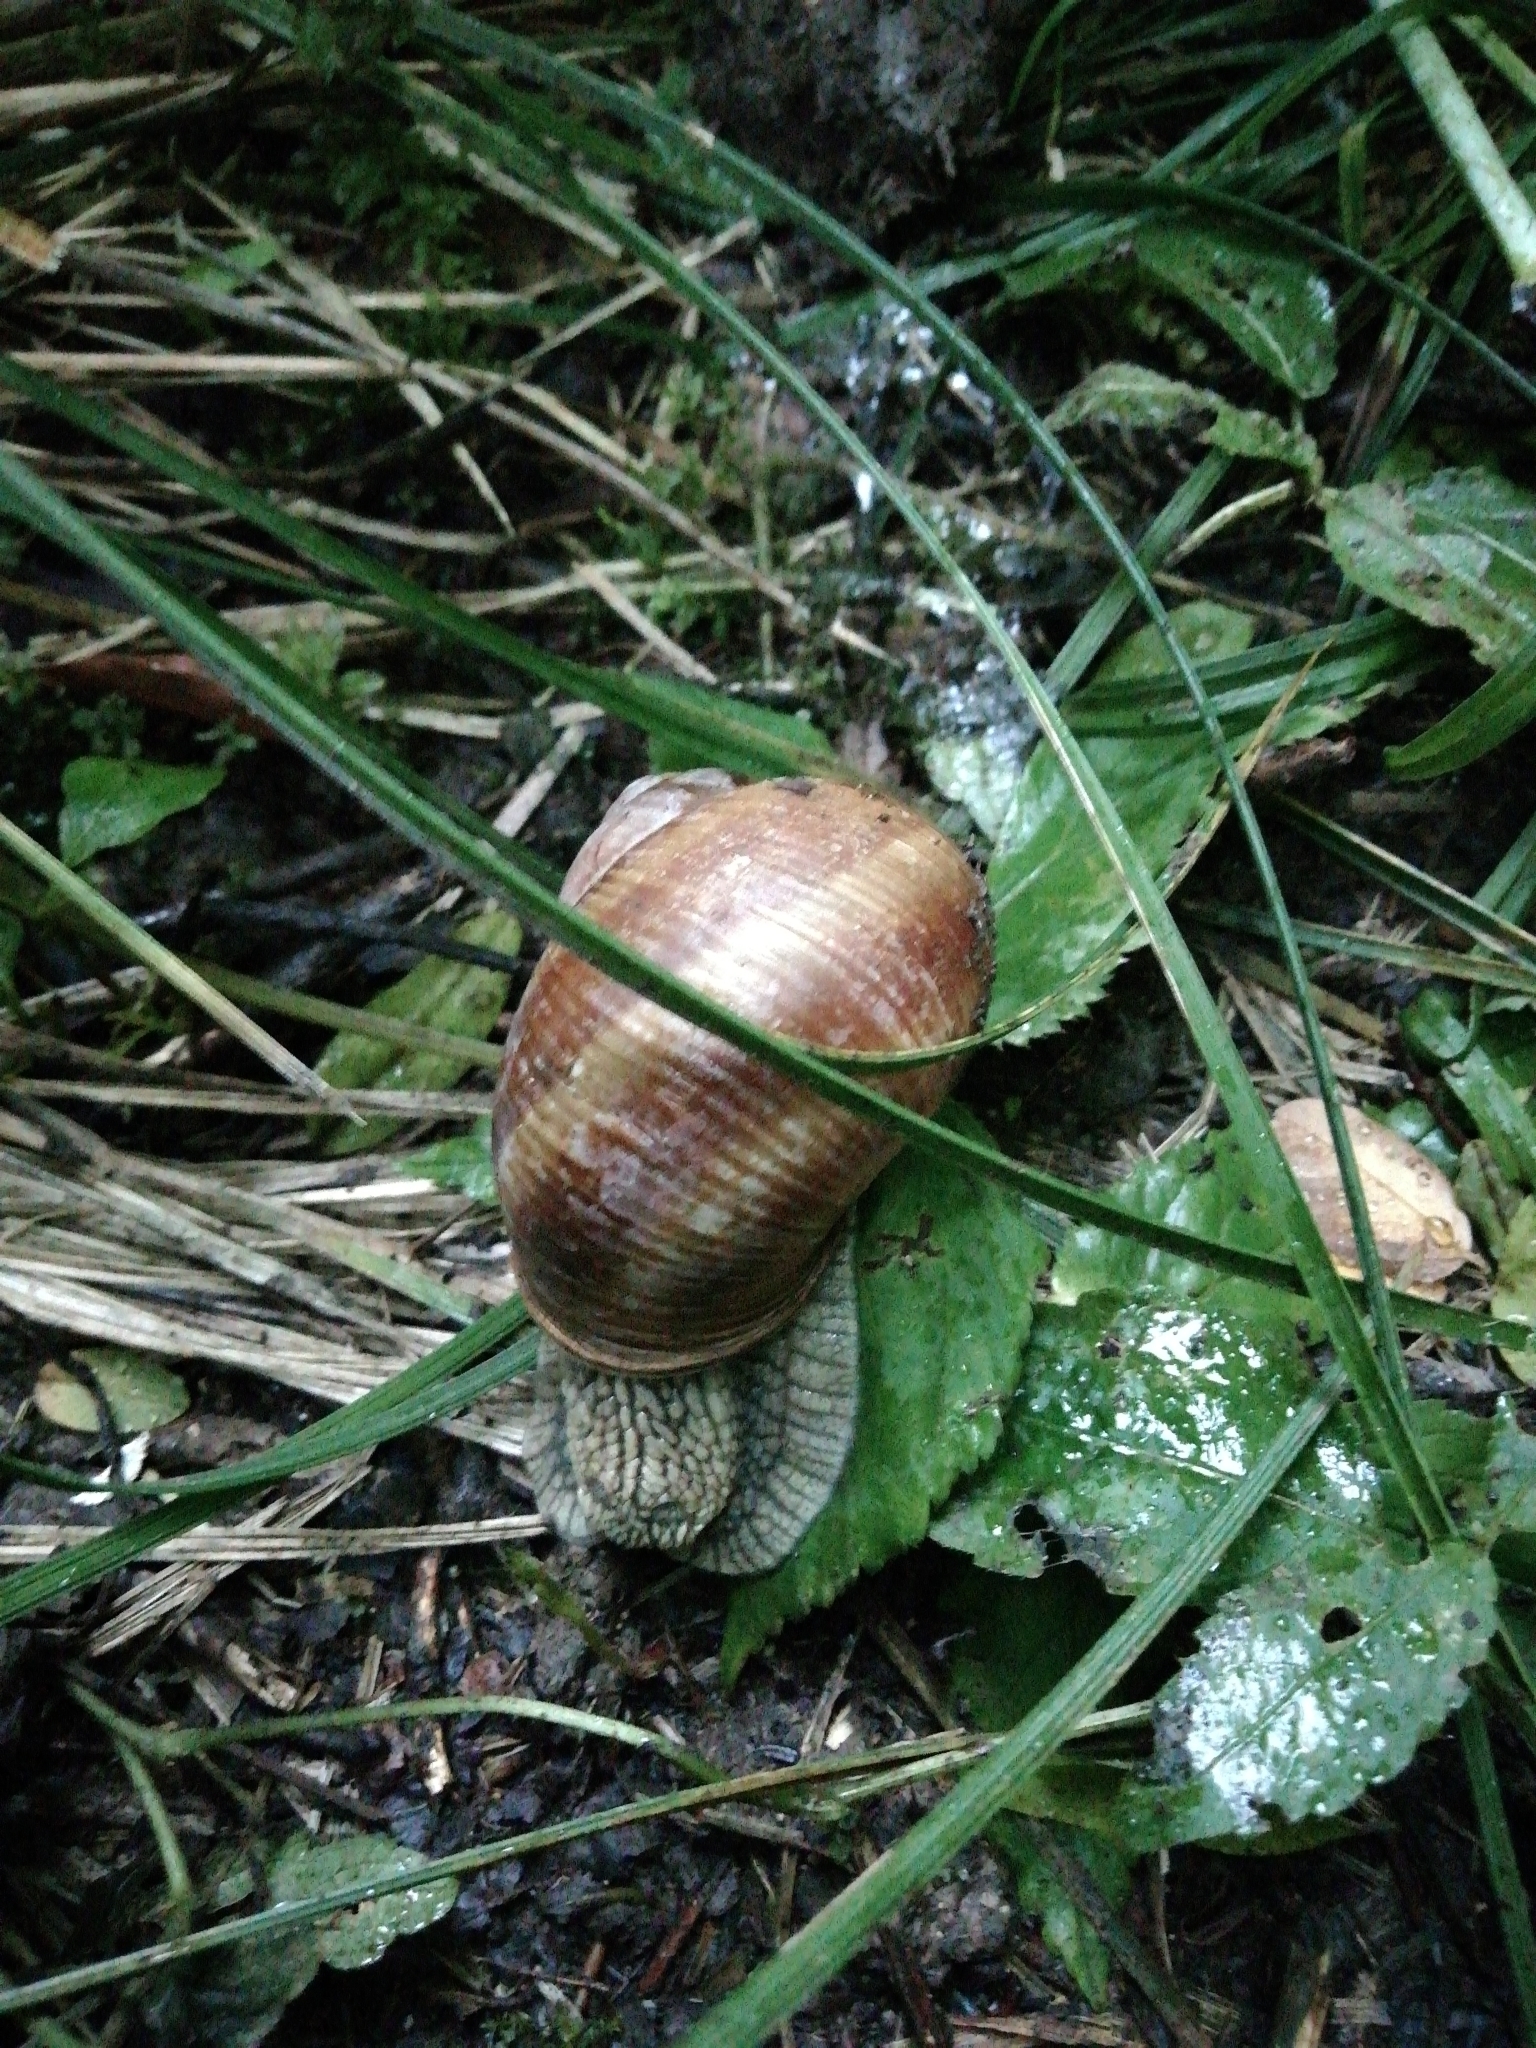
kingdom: Animalia
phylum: Mollusca
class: Gastropoda
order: Stylommatophora
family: Helicidae
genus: Helix
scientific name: Helix pomatia
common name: Roman snail
